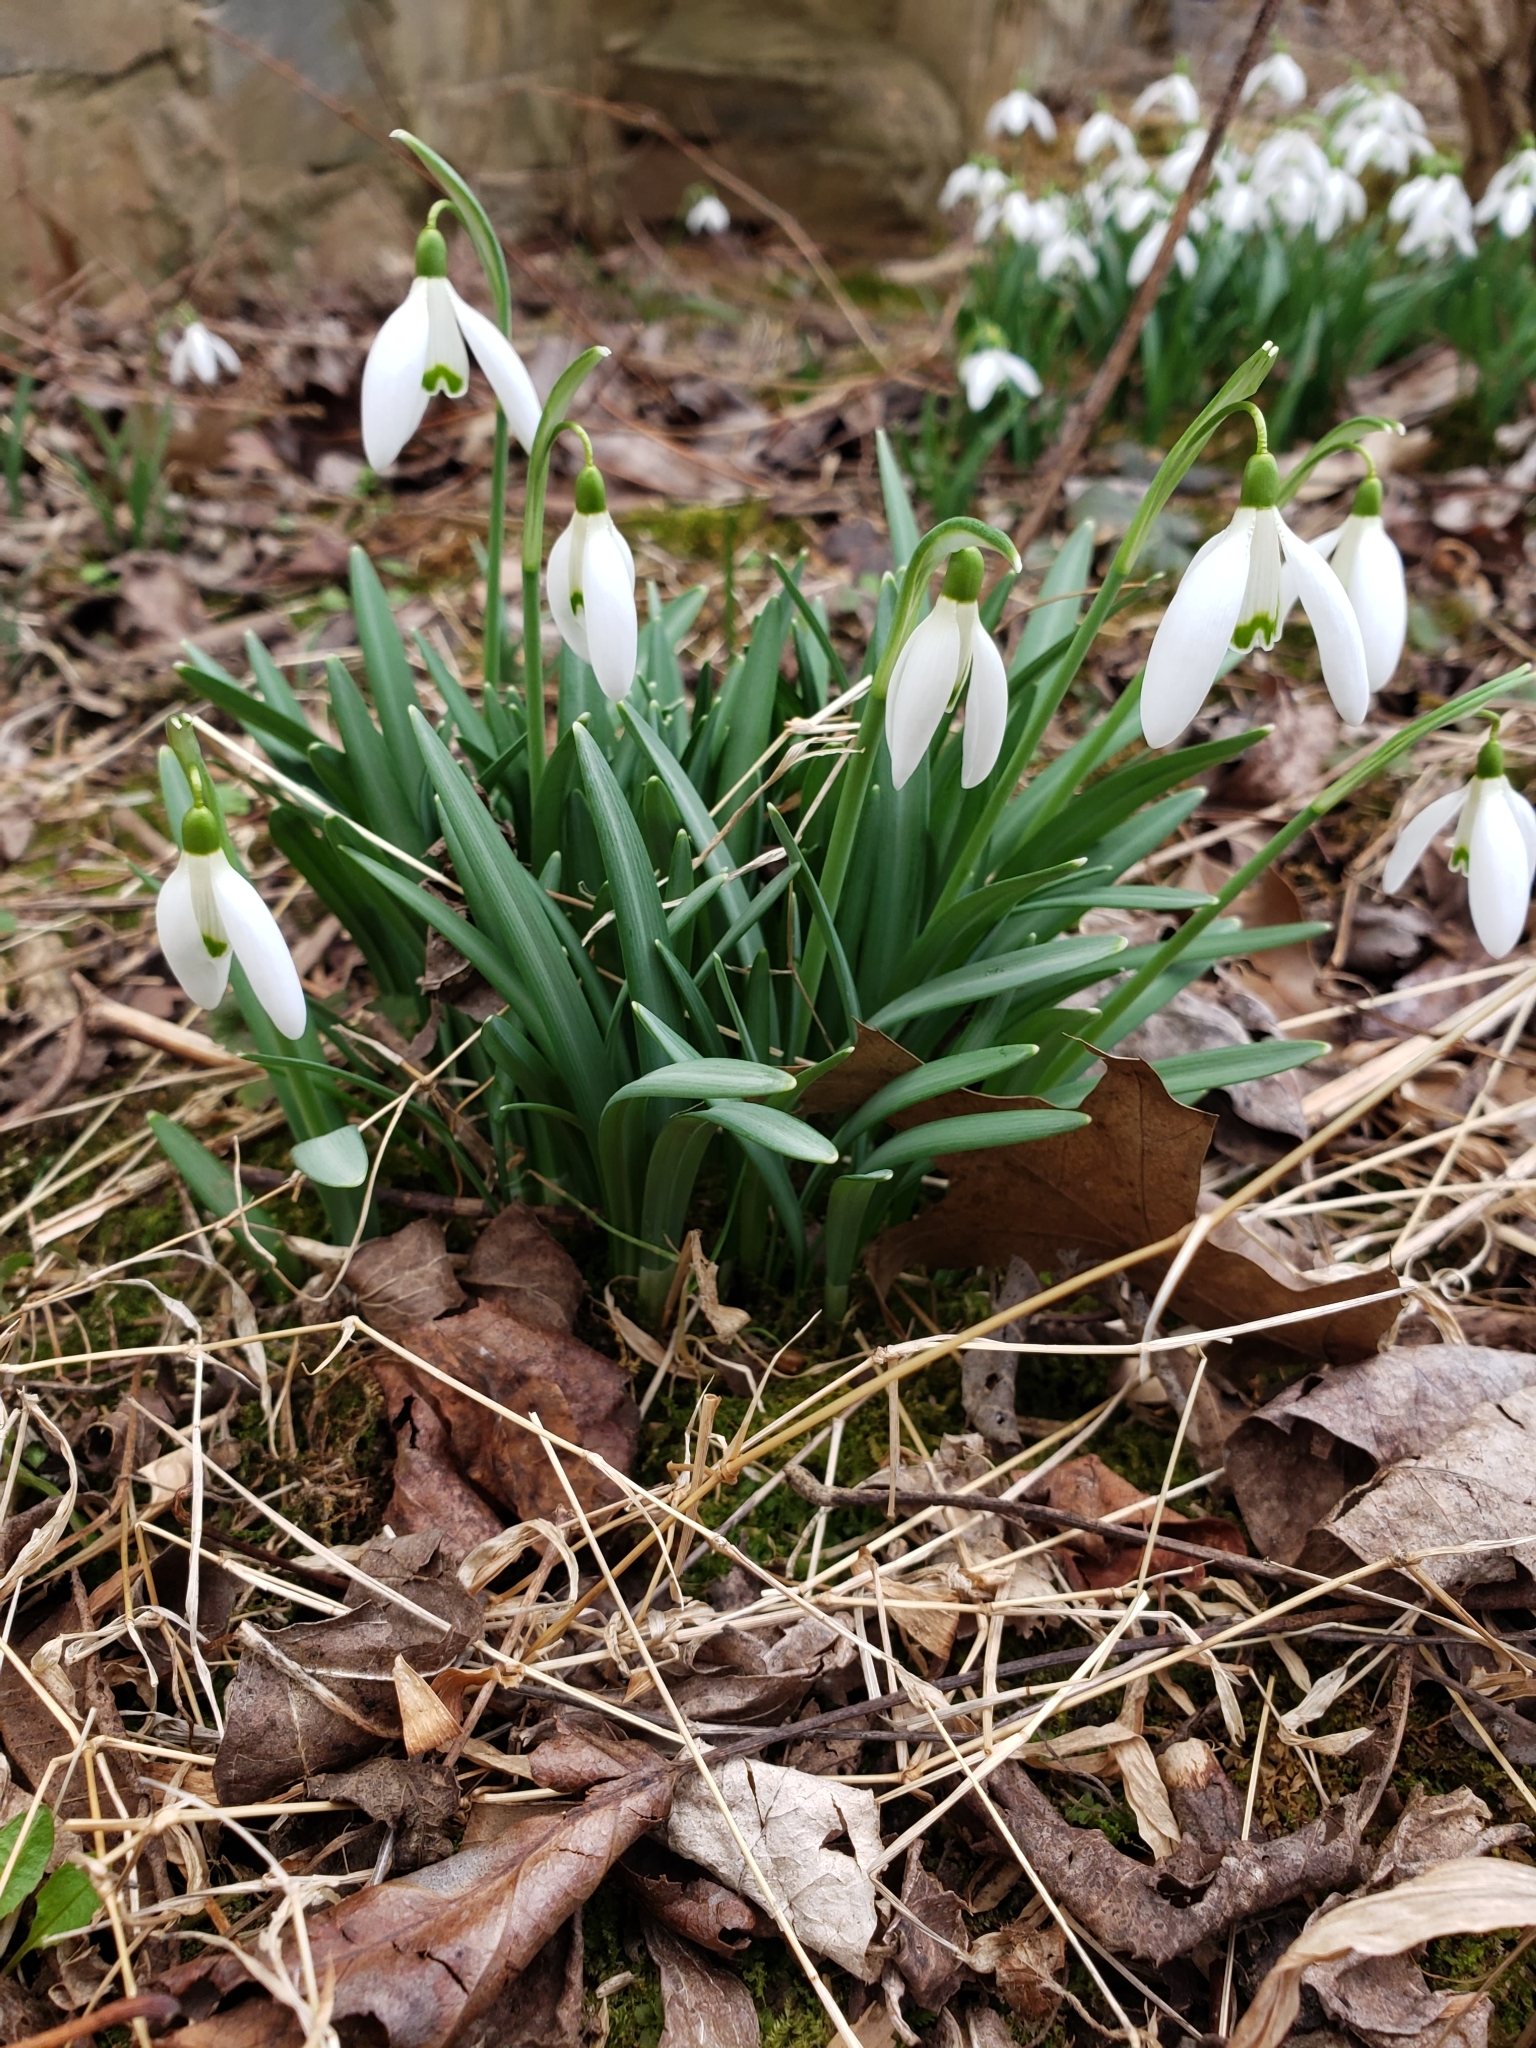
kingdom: Plantae
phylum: Tracheophyta
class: Liliopsida
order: Asparagales
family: Amaryllidaceae
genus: Galanthus
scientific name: Galanthus nivalis
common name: Snowdrop
